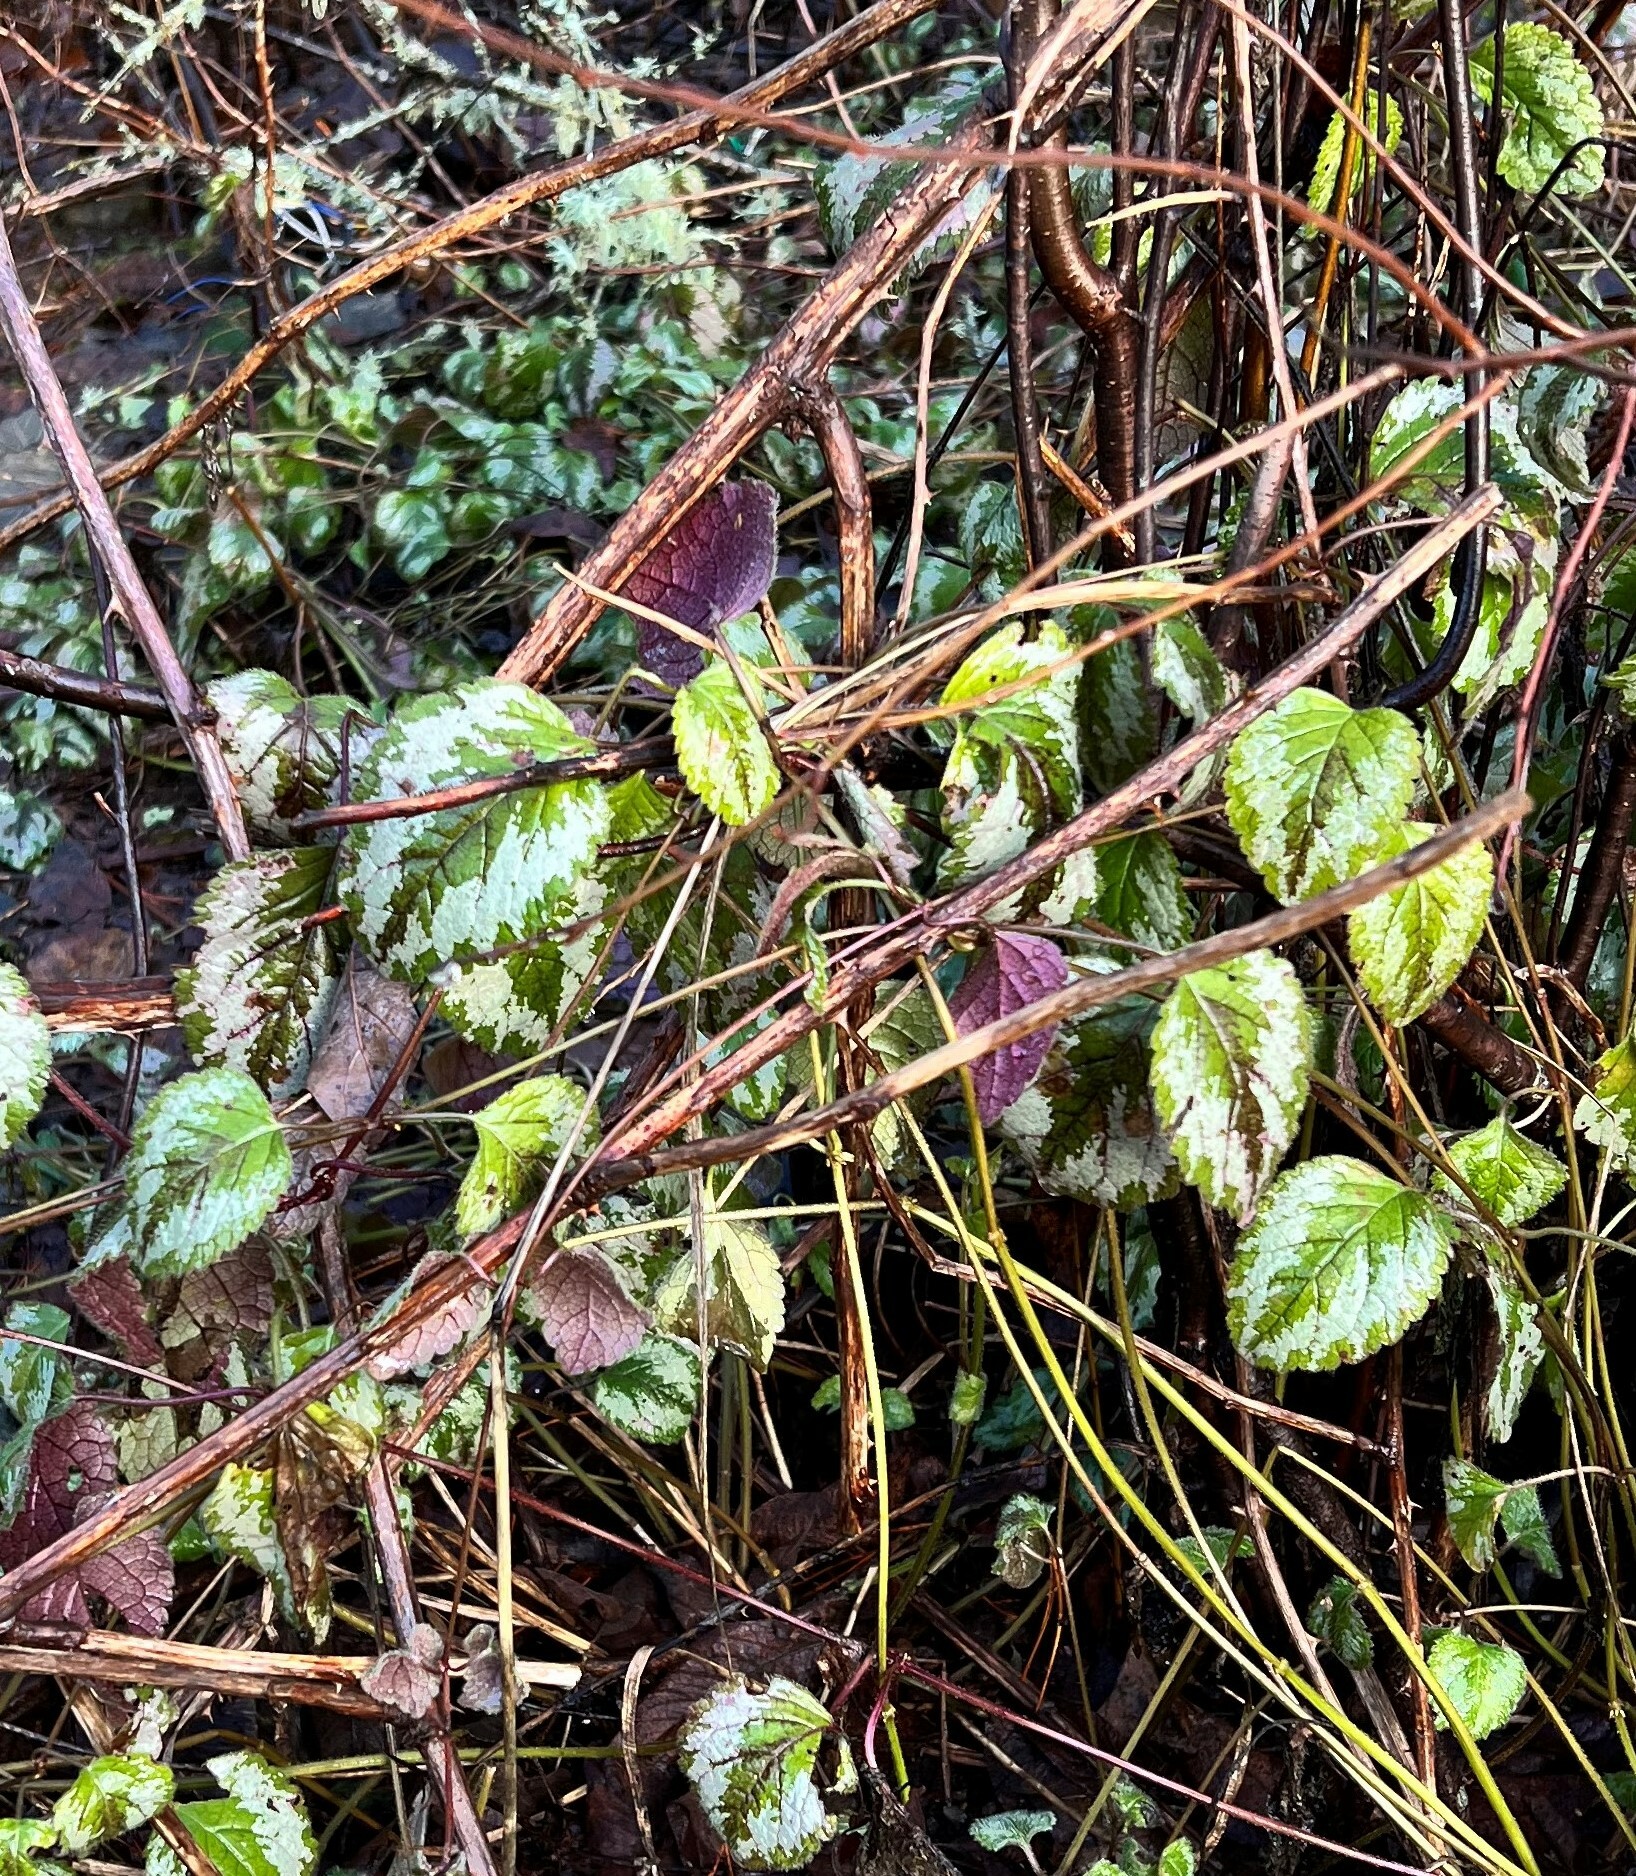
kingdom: Plantae
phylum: Tracheophyta
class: Magnoliopsida
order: Lamiales
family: Lamiaceae
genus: Lamium
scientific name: Lamium galeobdolon
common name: Yellow archangel
